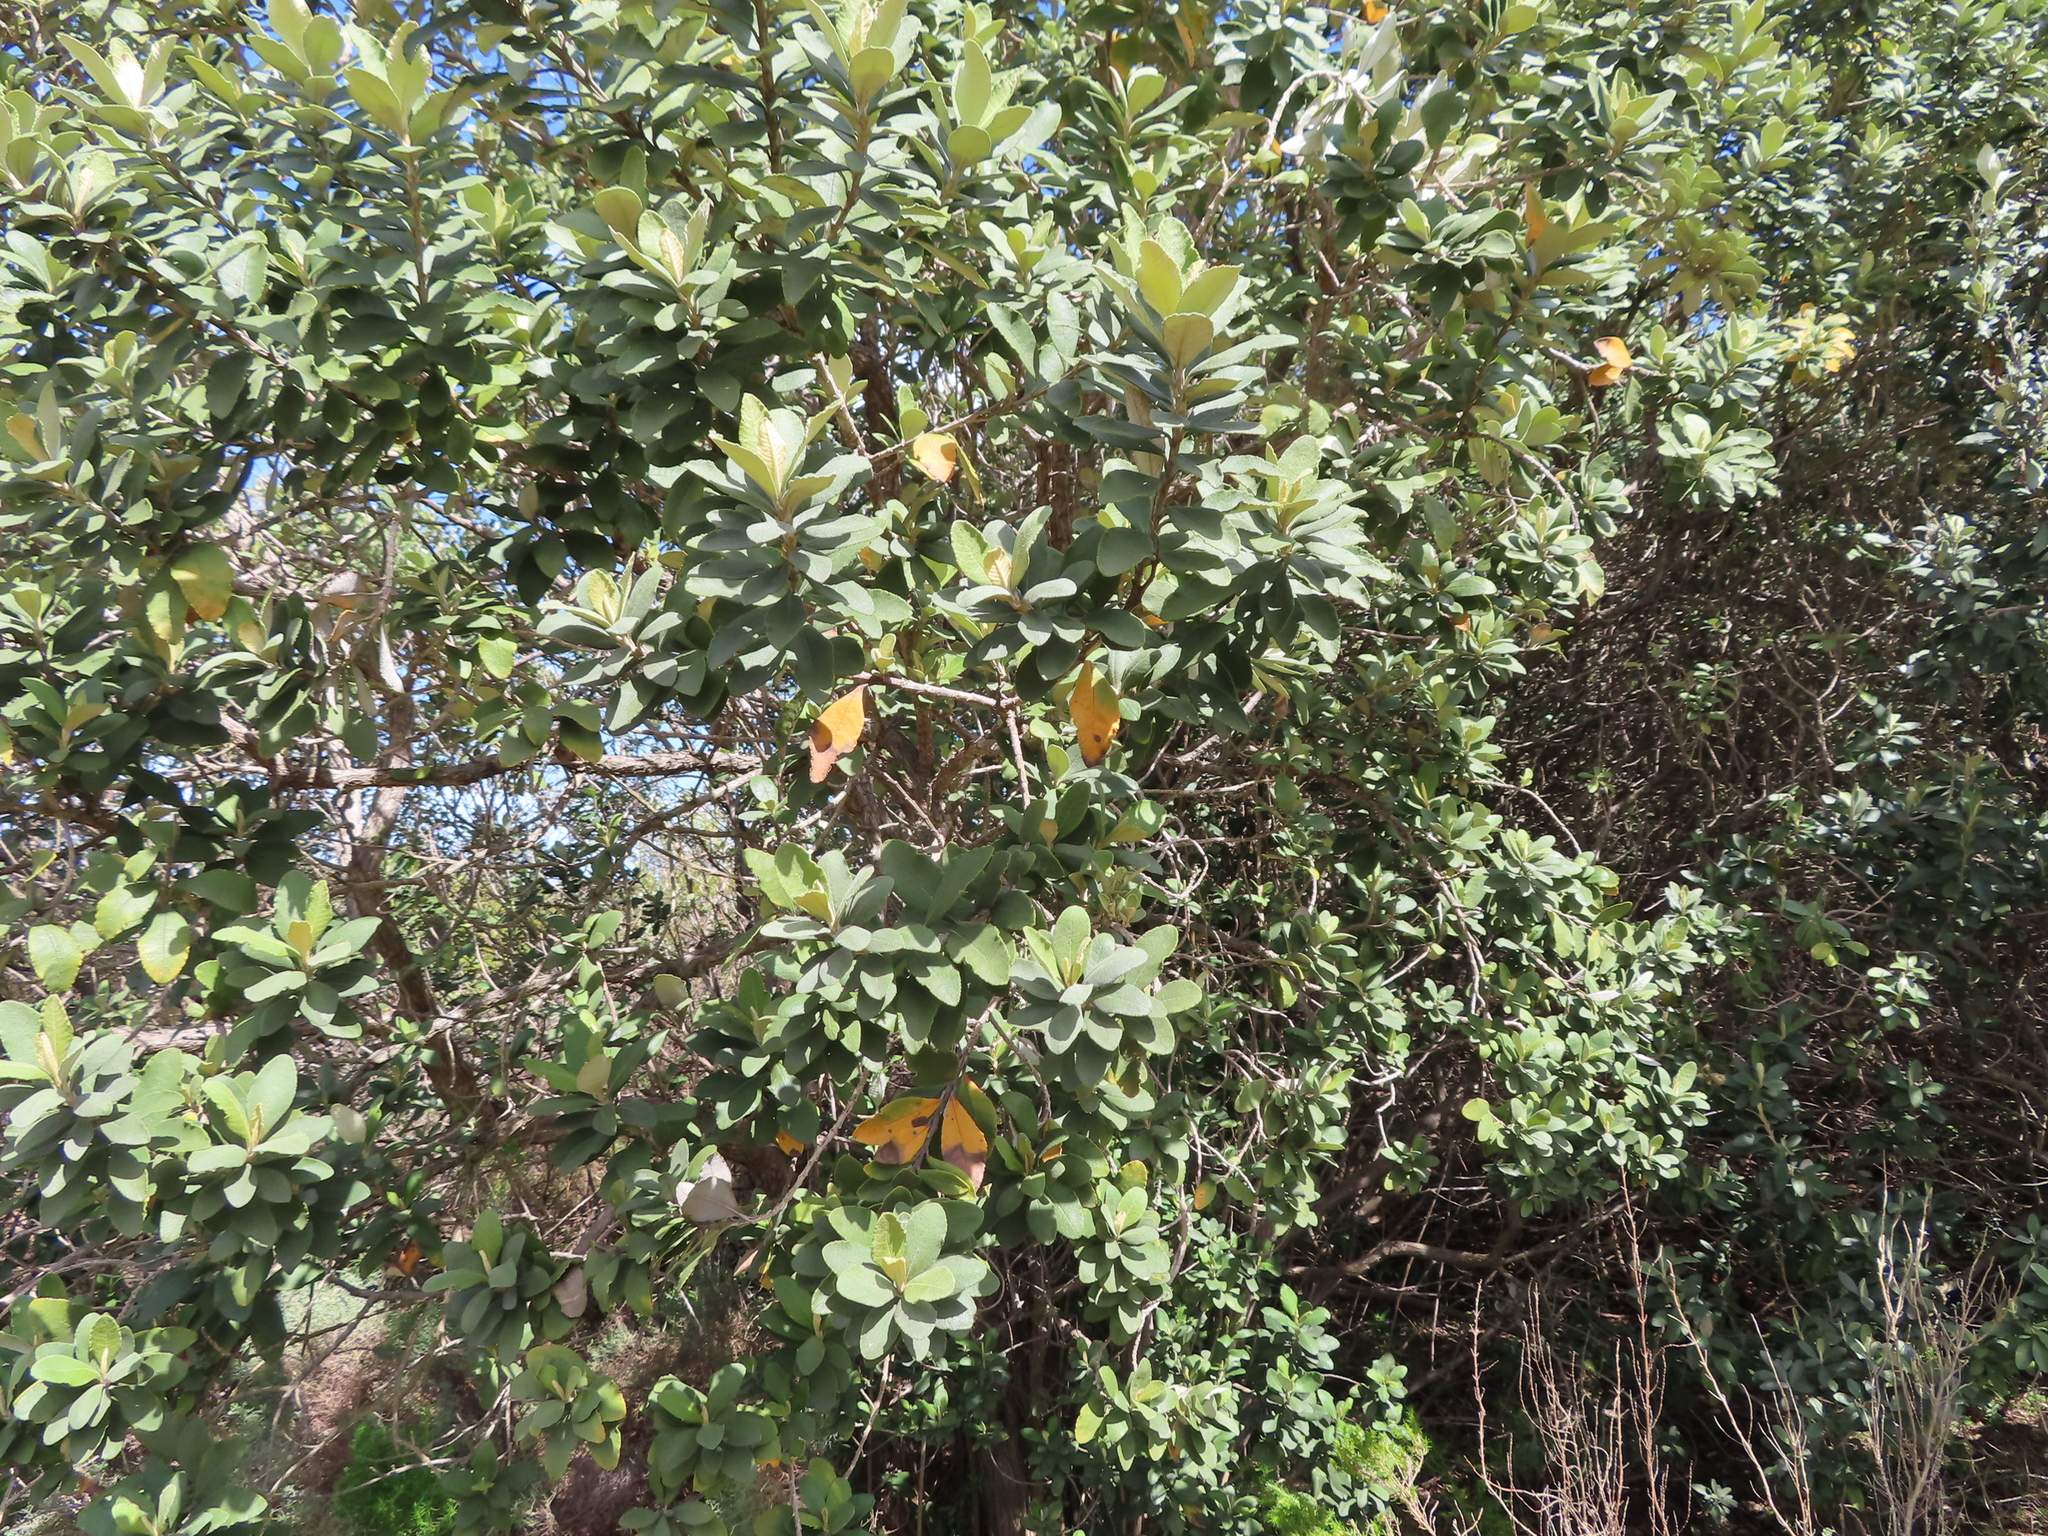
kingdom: Plantae
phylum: Tracheophyta
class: Magnoliopsida
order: Asterales
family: Asteraceae
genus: Tarchonanthus
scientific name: Tarchonanthus littoralis
